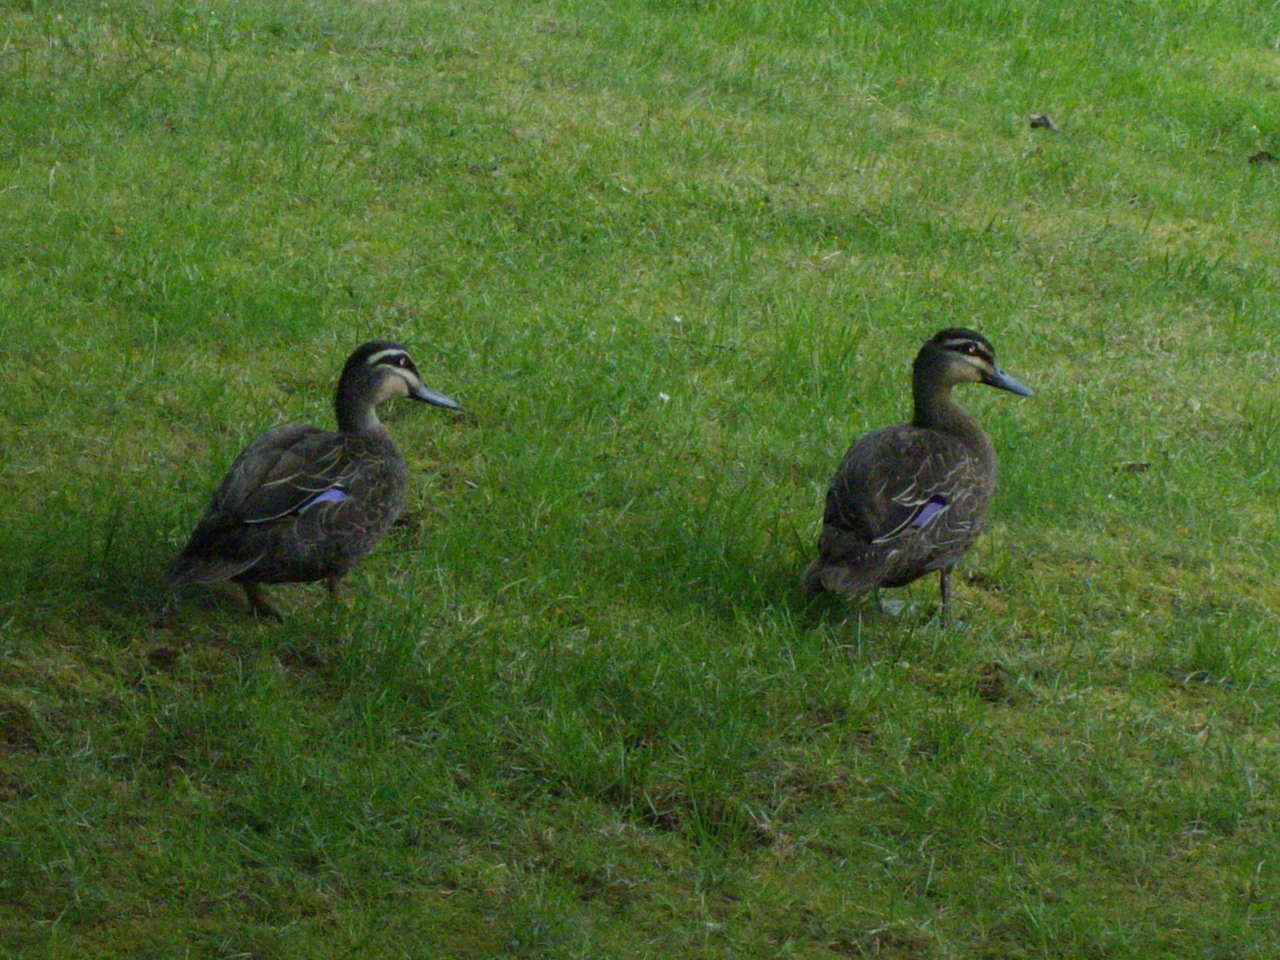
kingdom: Animalia
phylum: Chordata
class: Aves
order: Anseriformes
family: Anatidae
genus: Anas
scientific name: Anas superciliosa
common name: Pacific black duck
